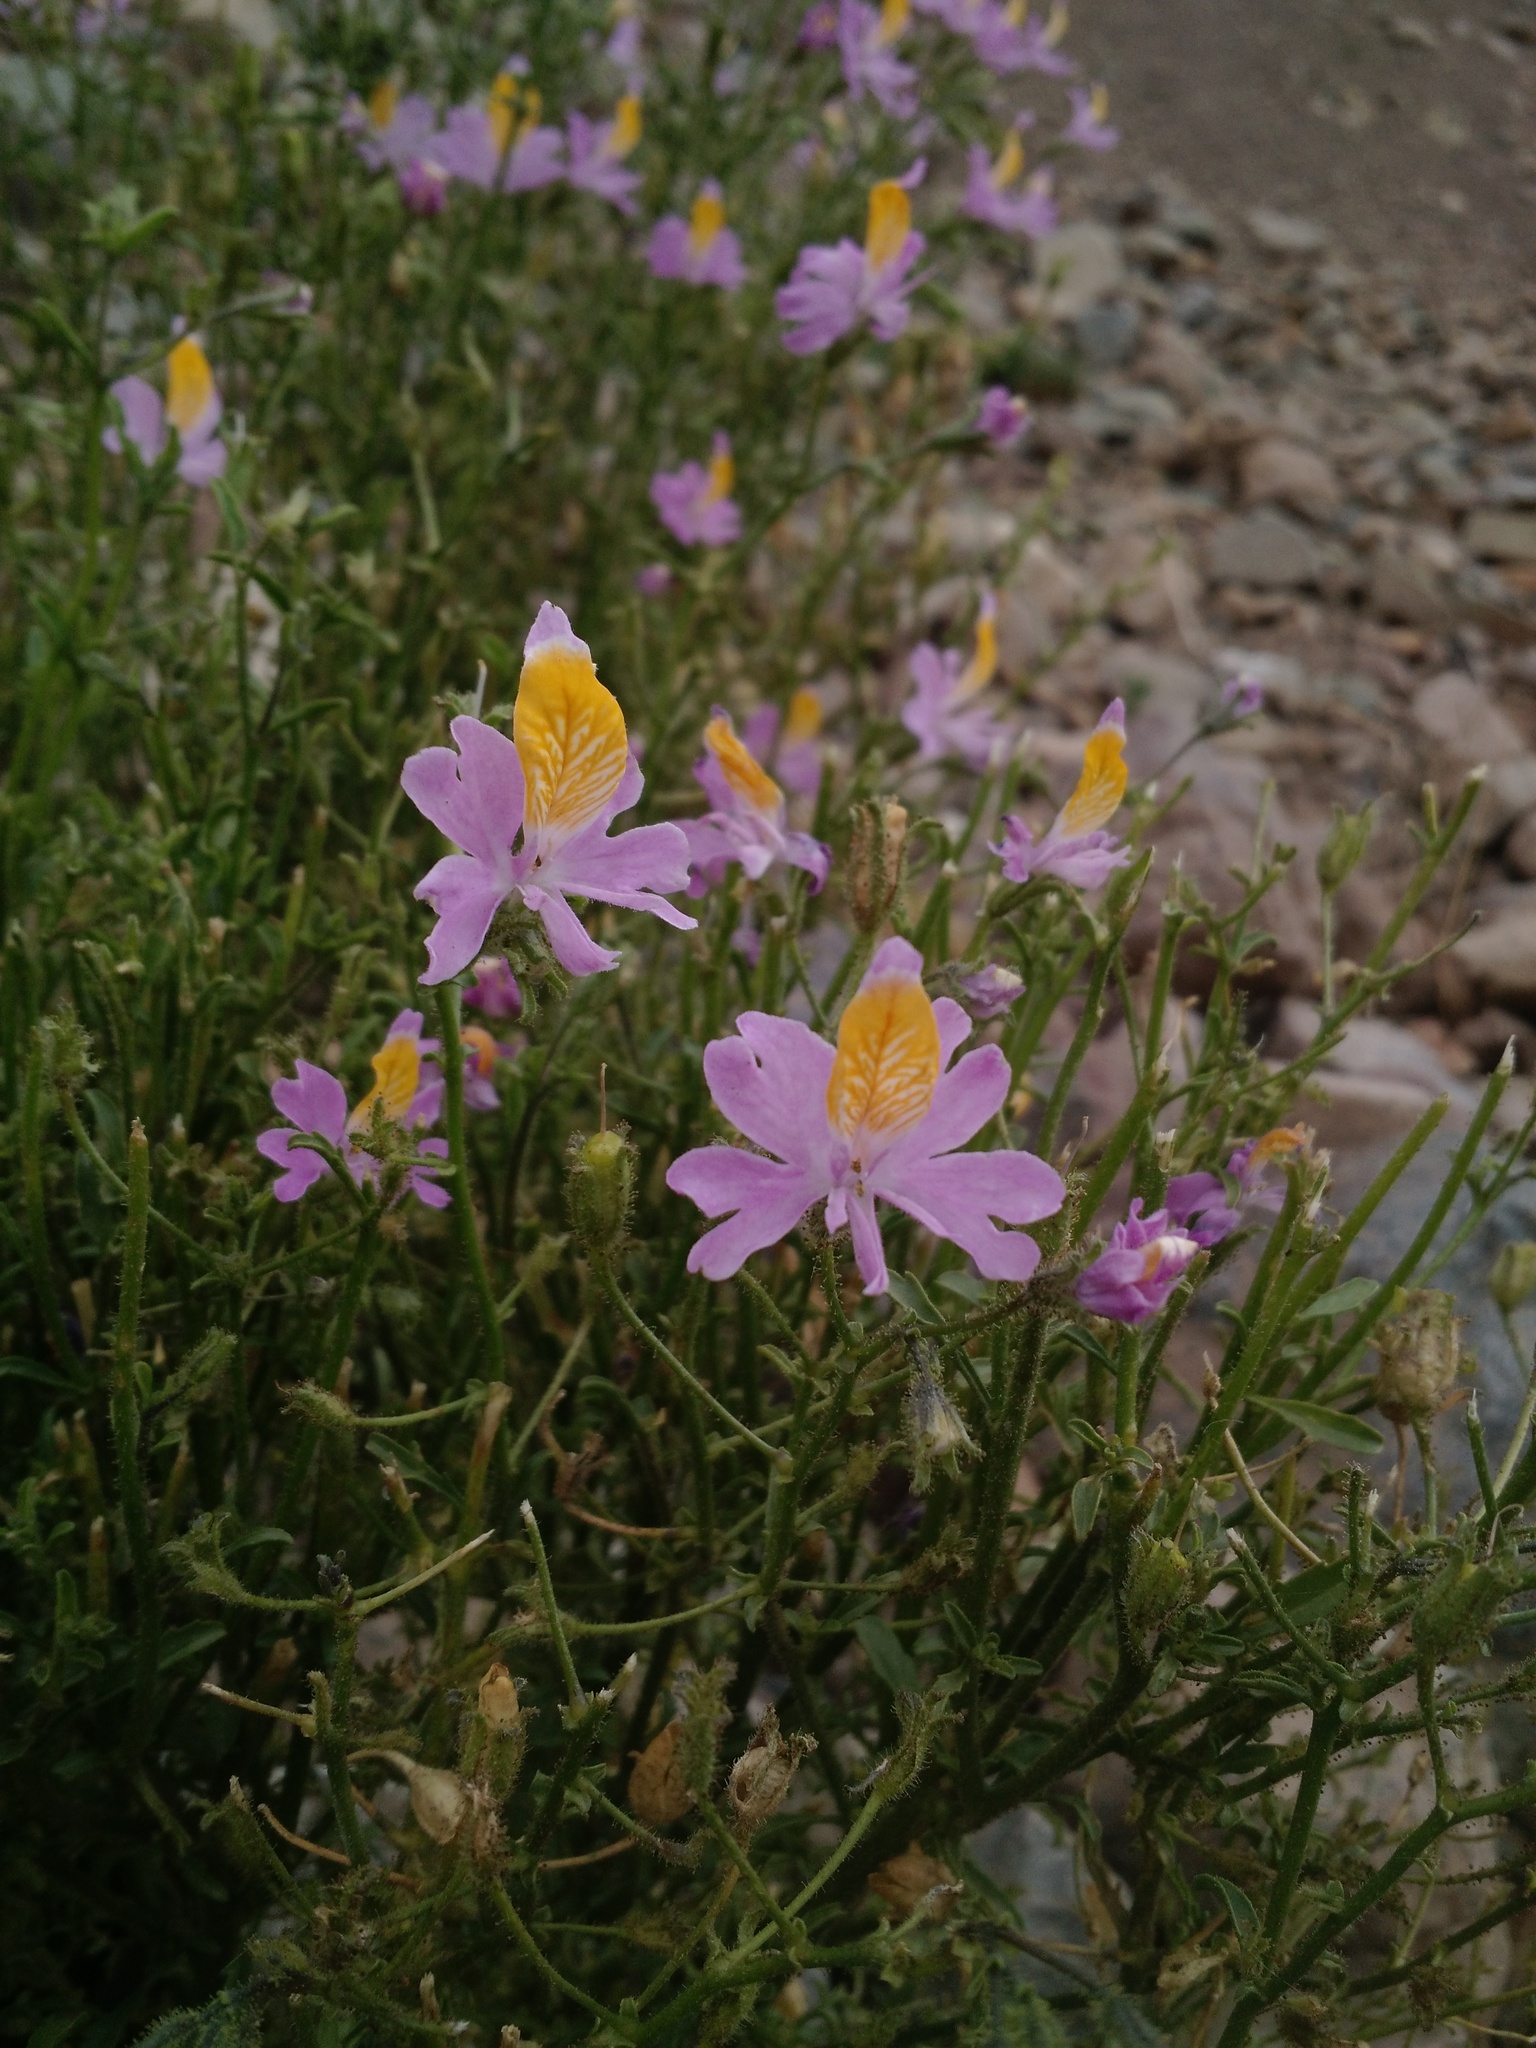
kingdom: Plantae
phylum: Tracheophyta
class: Magnoliopsida
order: Solanales
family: Solanaceae
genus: Schizanthus
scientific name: Schizanthus grahamii
